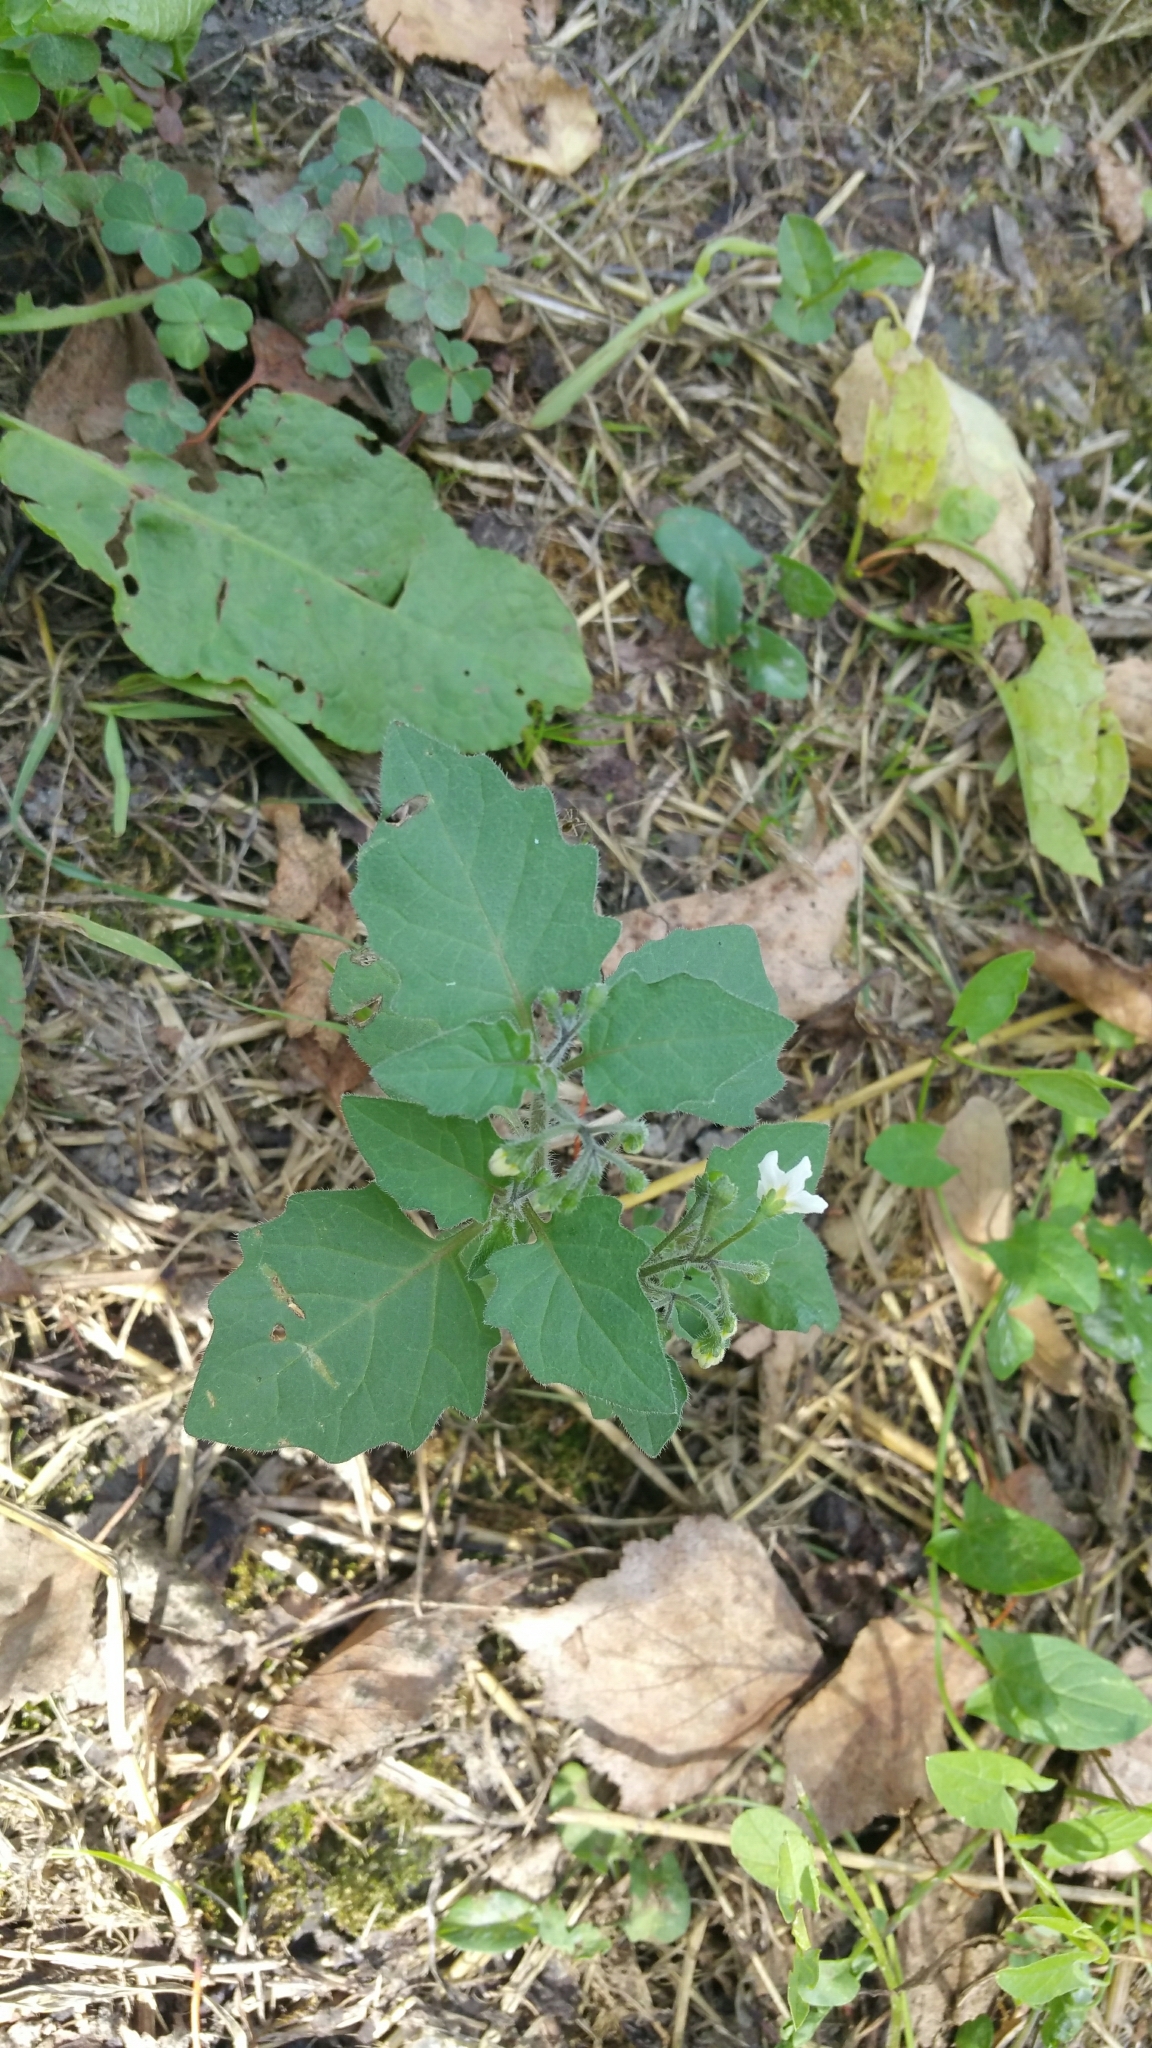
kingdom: Plantae
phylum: Tracheophyta
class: Magnoliopsida
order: Solanales
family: Solanaceae
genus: Solanum
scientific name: Solanum nigrum
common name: Black nightshade
